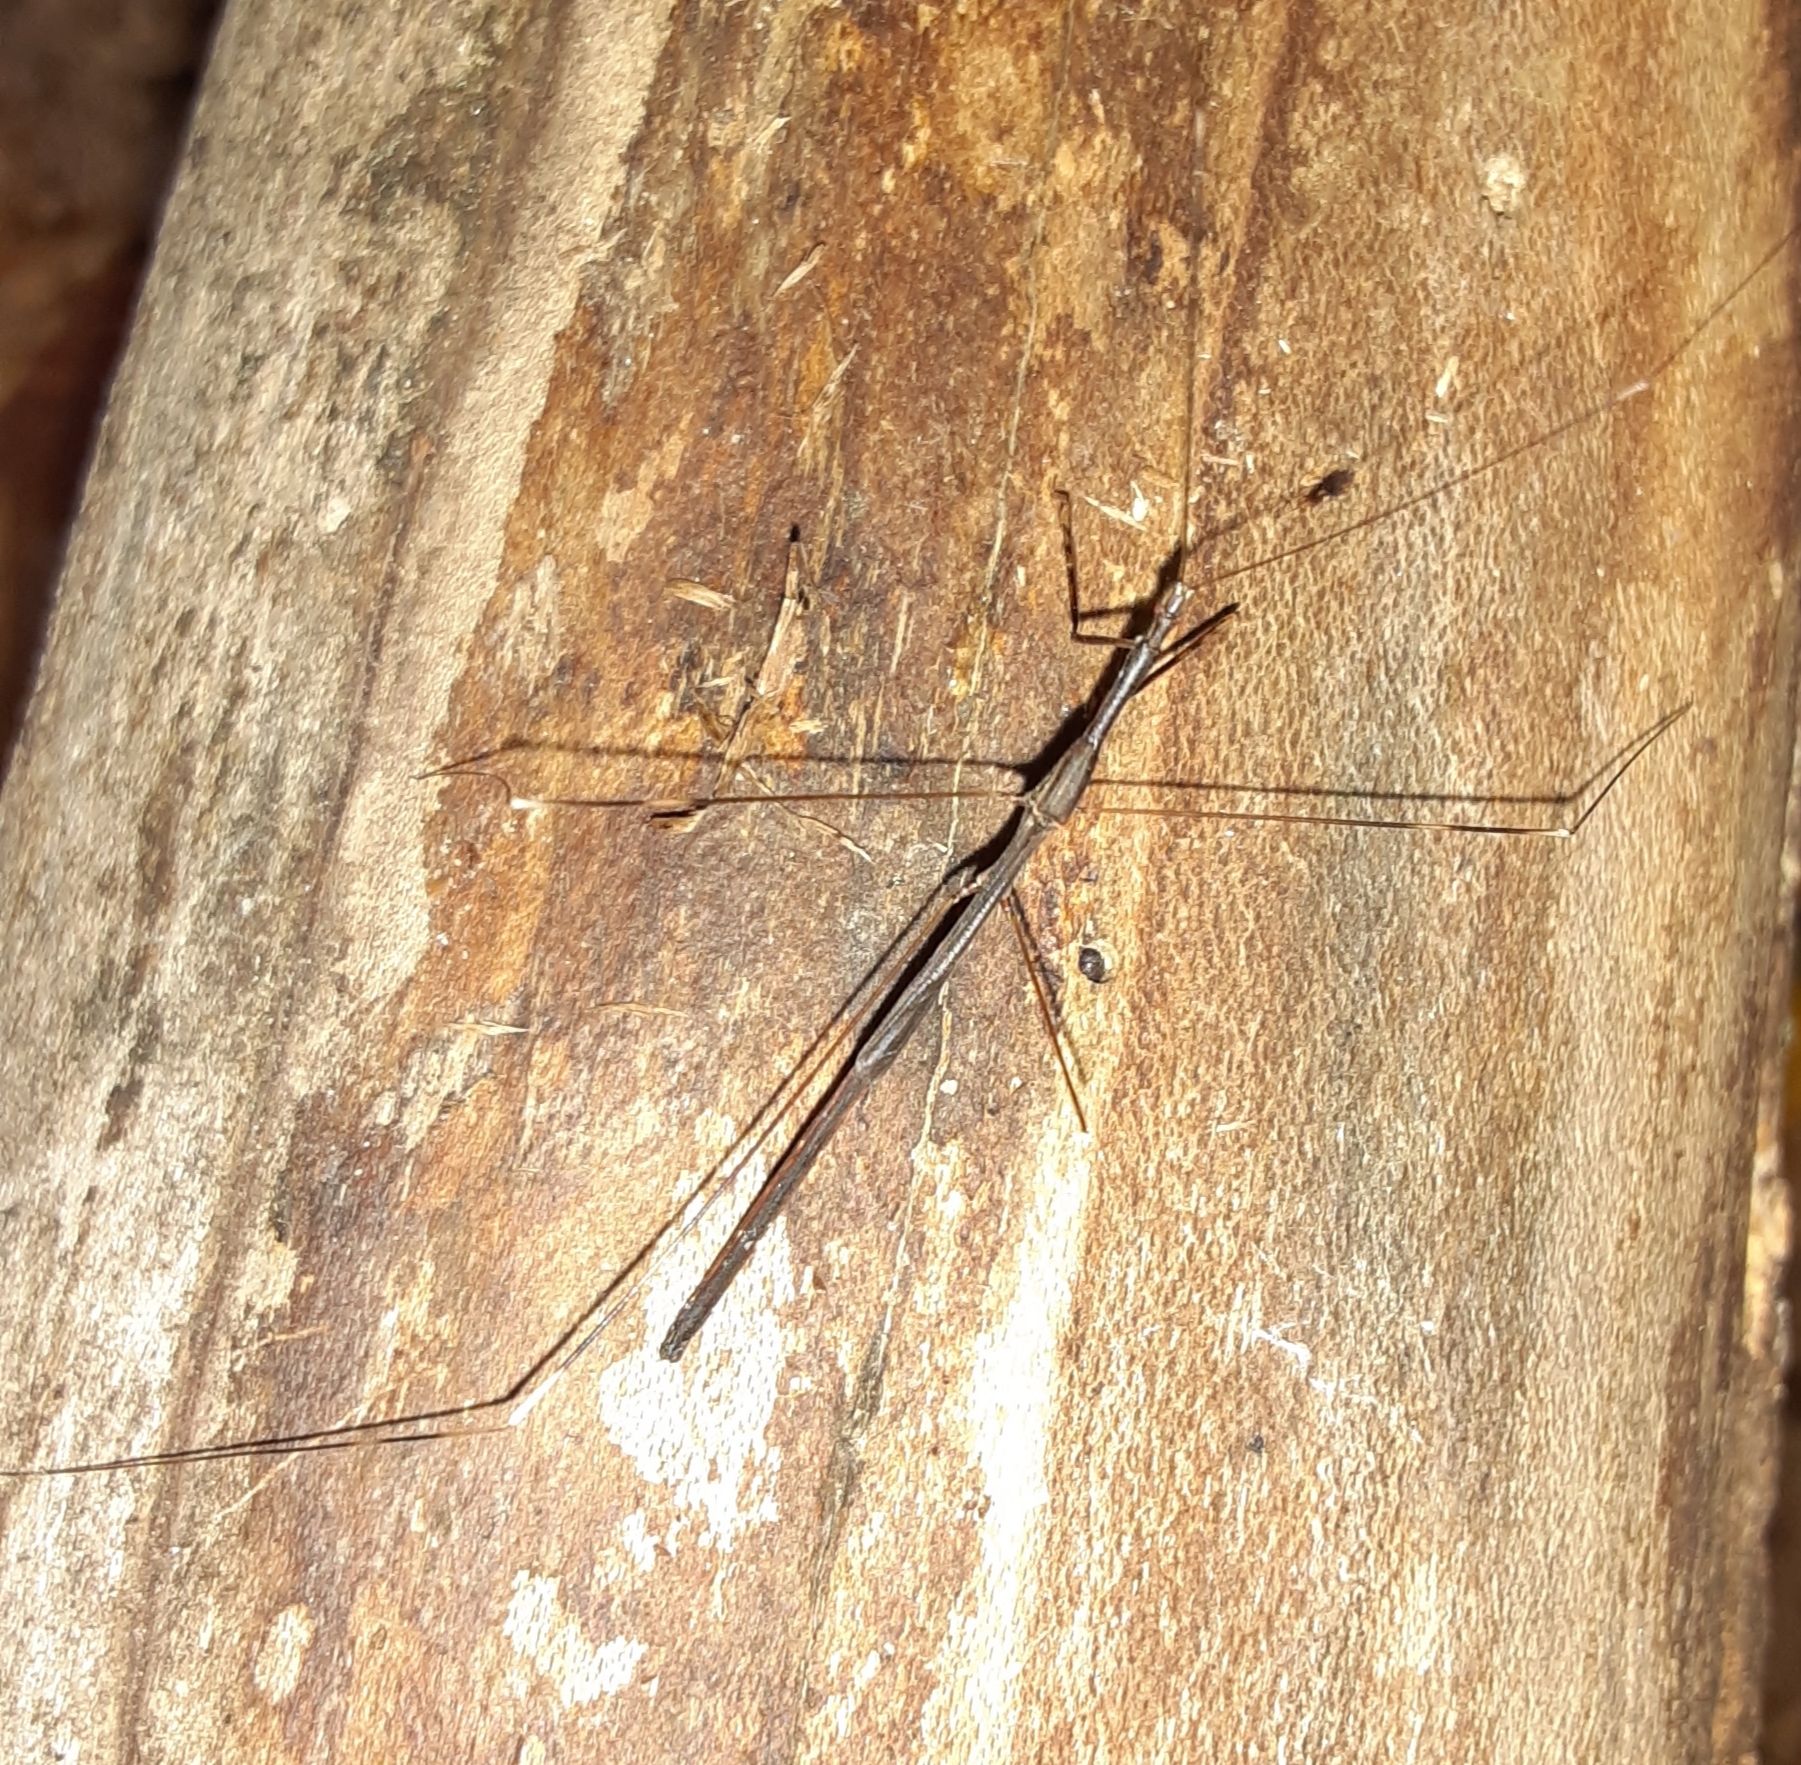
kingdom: Animalia
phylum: Arthropoda
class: Insecta
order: Hemiptera
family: Reduviidae
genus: Emesaya
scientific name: Emesaya brevipennis
